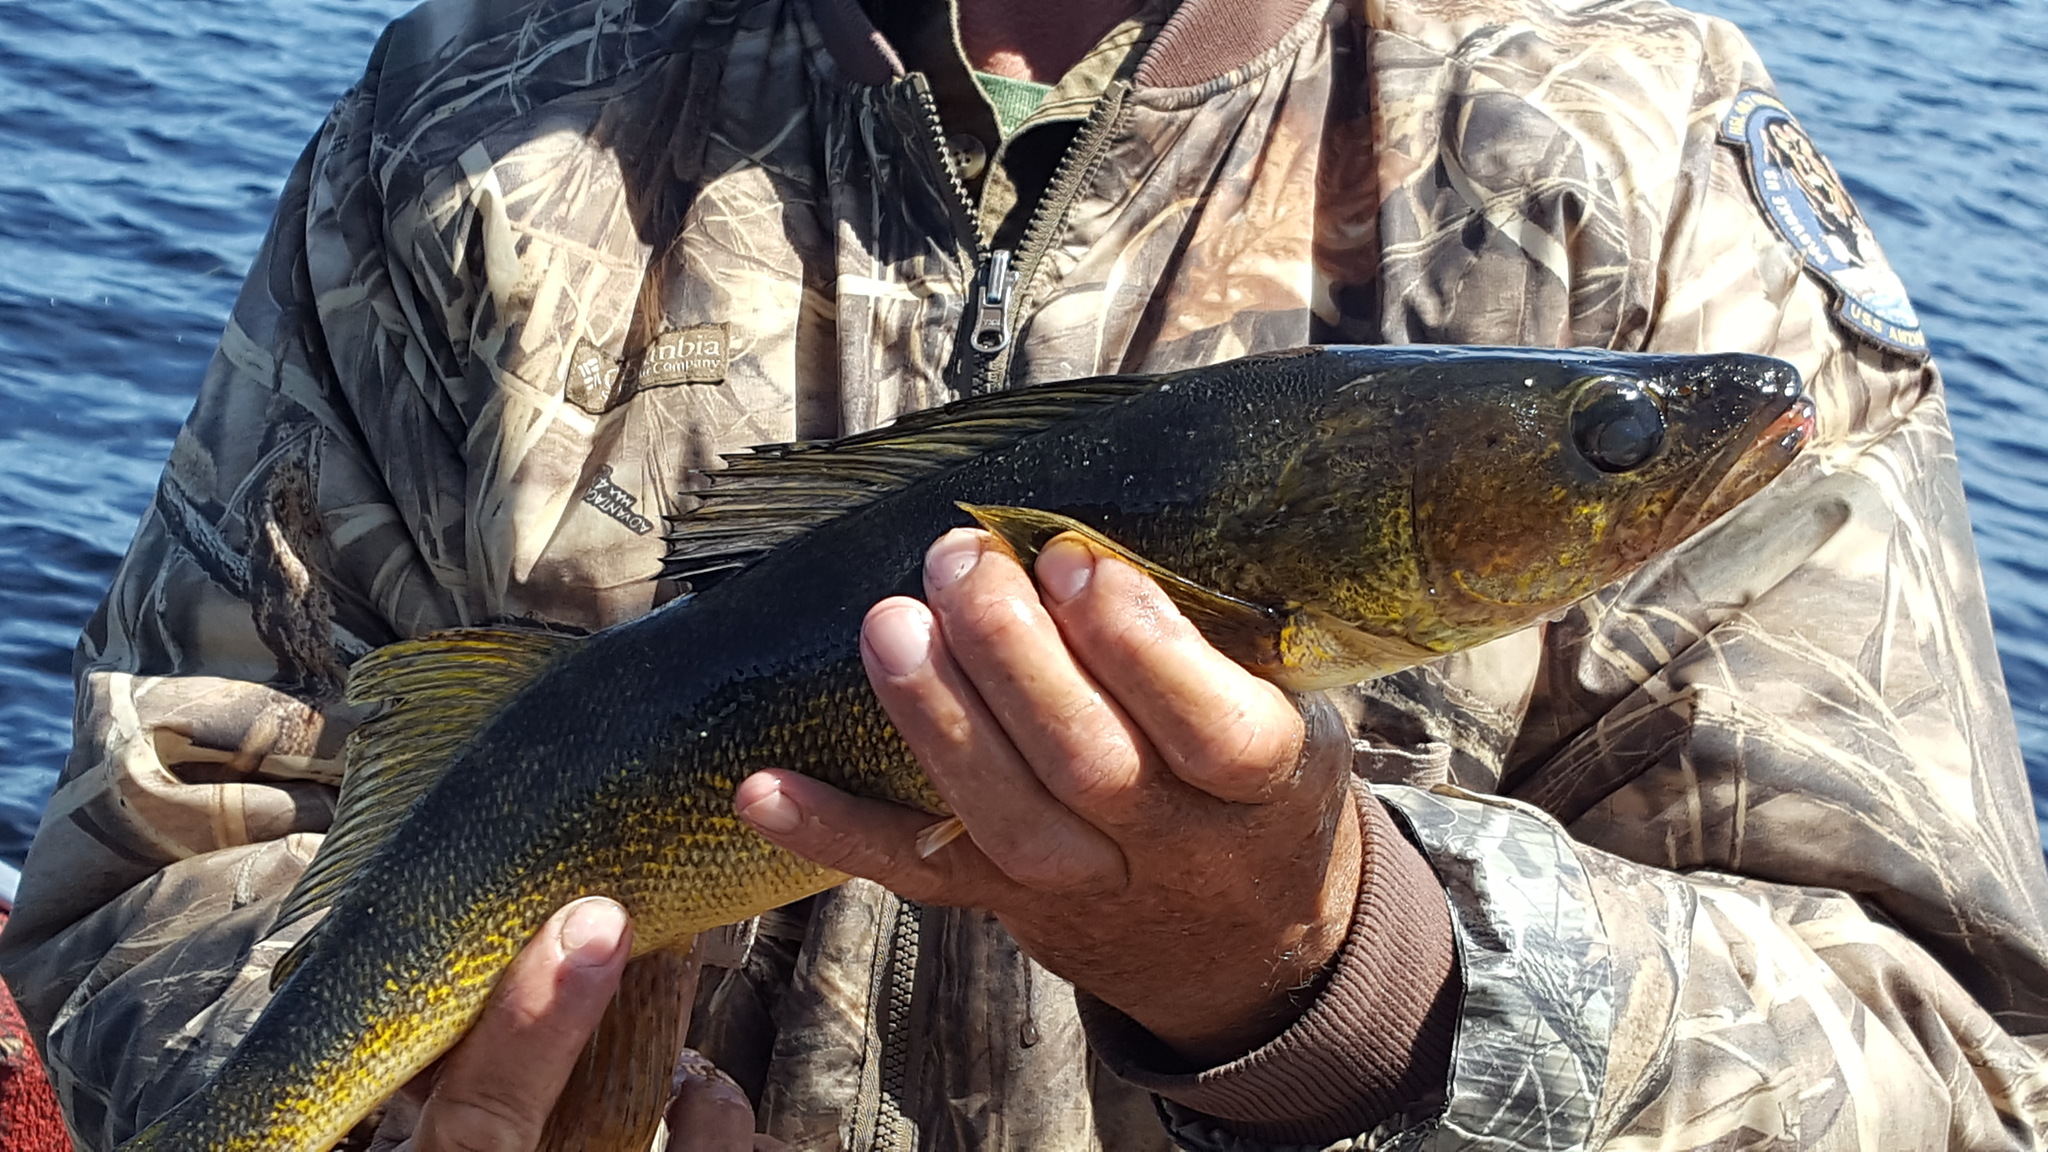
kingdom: Animalia
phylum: Chordata
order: Perciformes
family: Percidae
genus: Sander
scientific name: Sander vitreus
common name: Walleye
